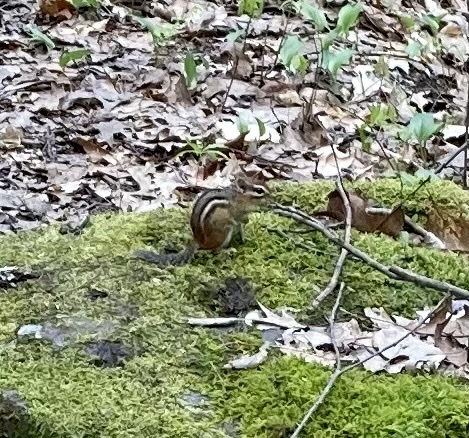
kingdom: Animalia
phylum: Chordata
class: Mammalia
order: Rodentia
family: Sciuridae
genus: Tamias
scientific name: Tamias striatus
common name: Eastern chipmunk
